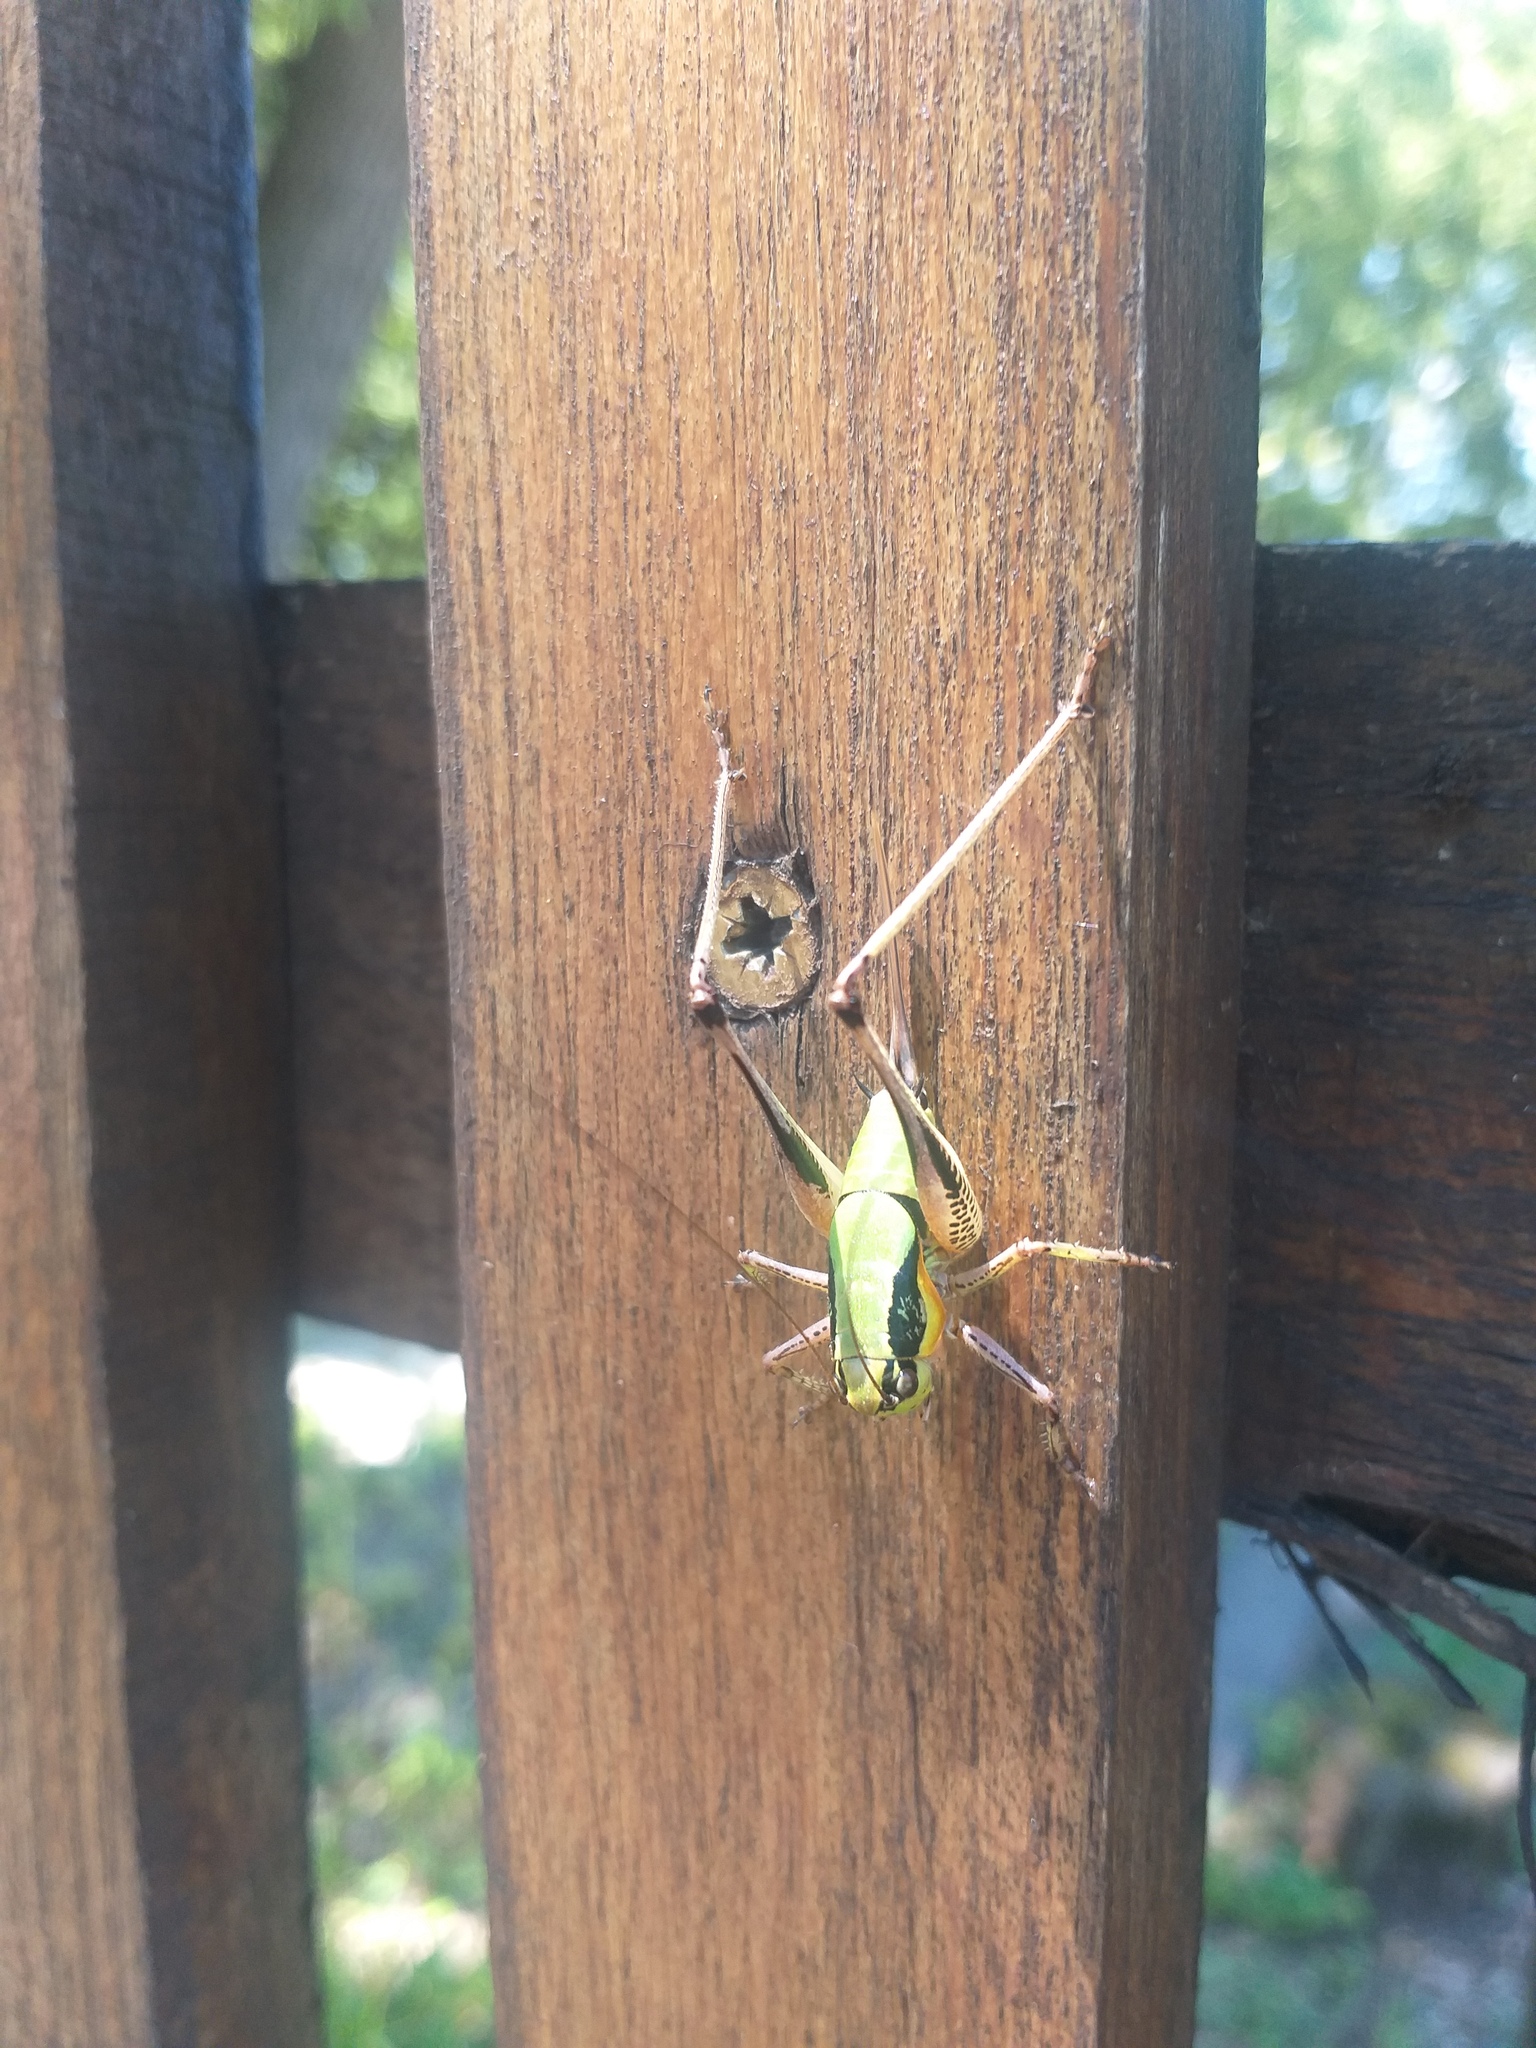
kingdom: Animalia
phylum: Arthropoda
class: Insecta
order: Orthoptera
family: Tettigoniidae
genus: Eupholidoptera
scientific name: Eupholidoptera schmidti
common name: Schmidt's marbled bush-cricket
